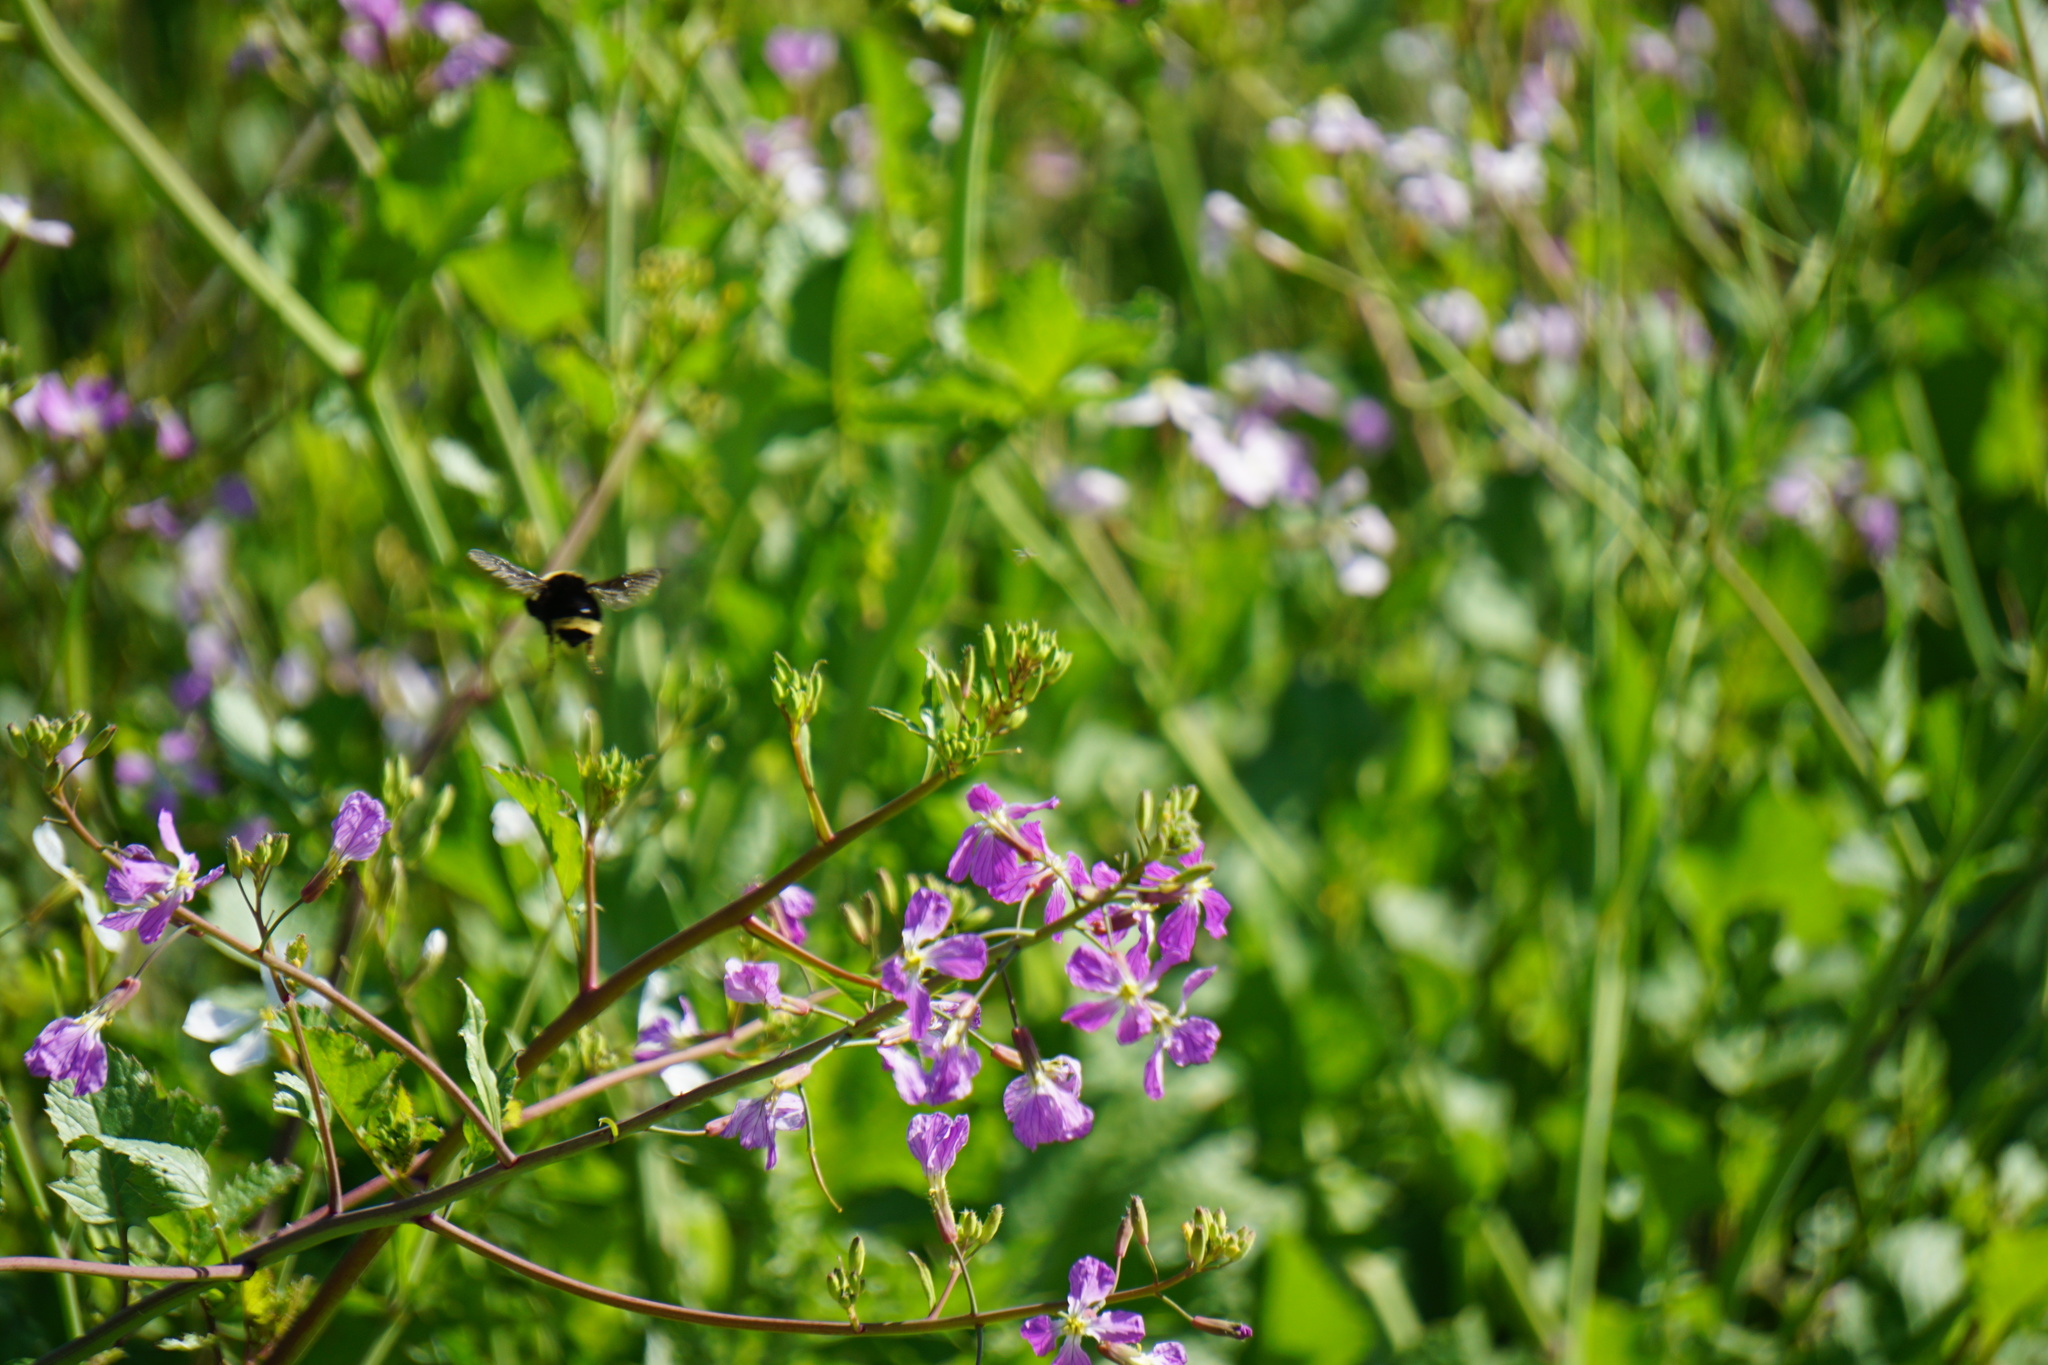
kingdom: Animalia
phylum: Arthropoda
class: Insecta
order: Hymenoptera
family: Apidae
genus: Bombus
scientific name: Bombus
